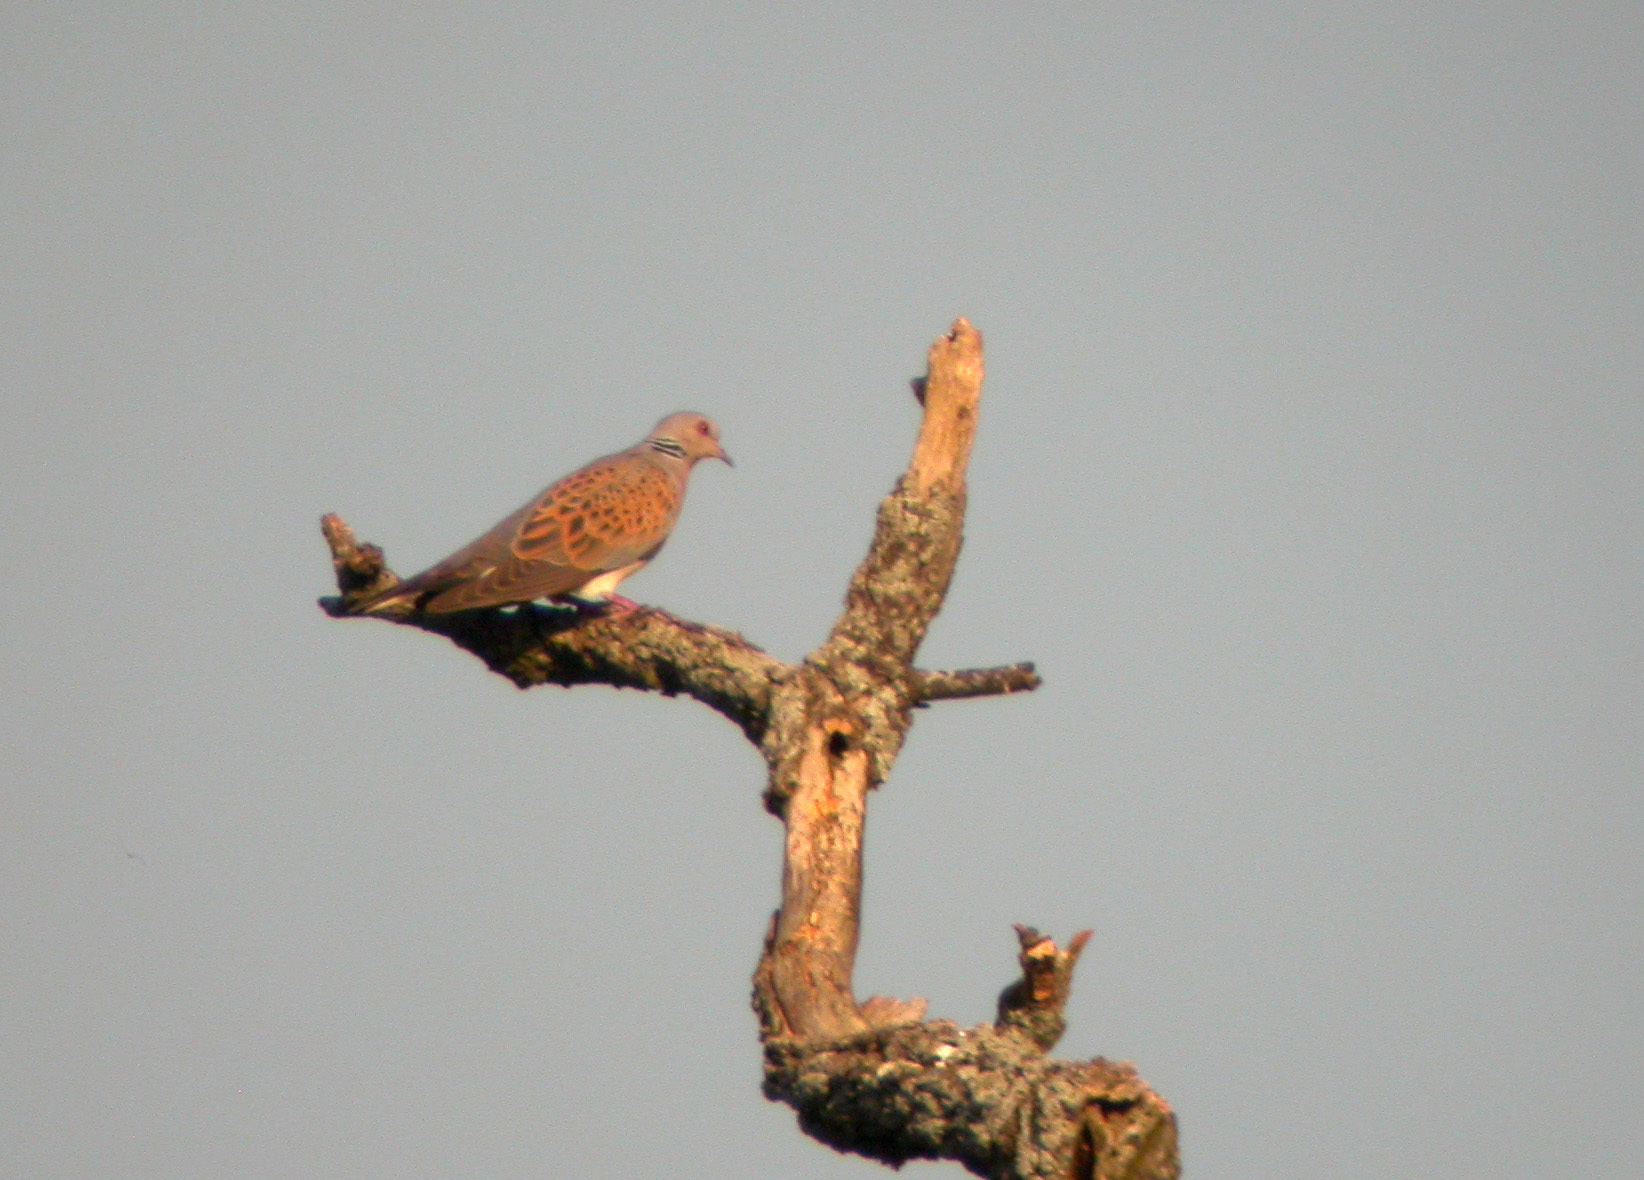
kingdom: Animalia
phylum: Chordata
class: Aves
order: Columbiformes
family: Columbidae
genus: Streptopelia
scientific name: Streptopelia turtur
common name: European turtle dove
